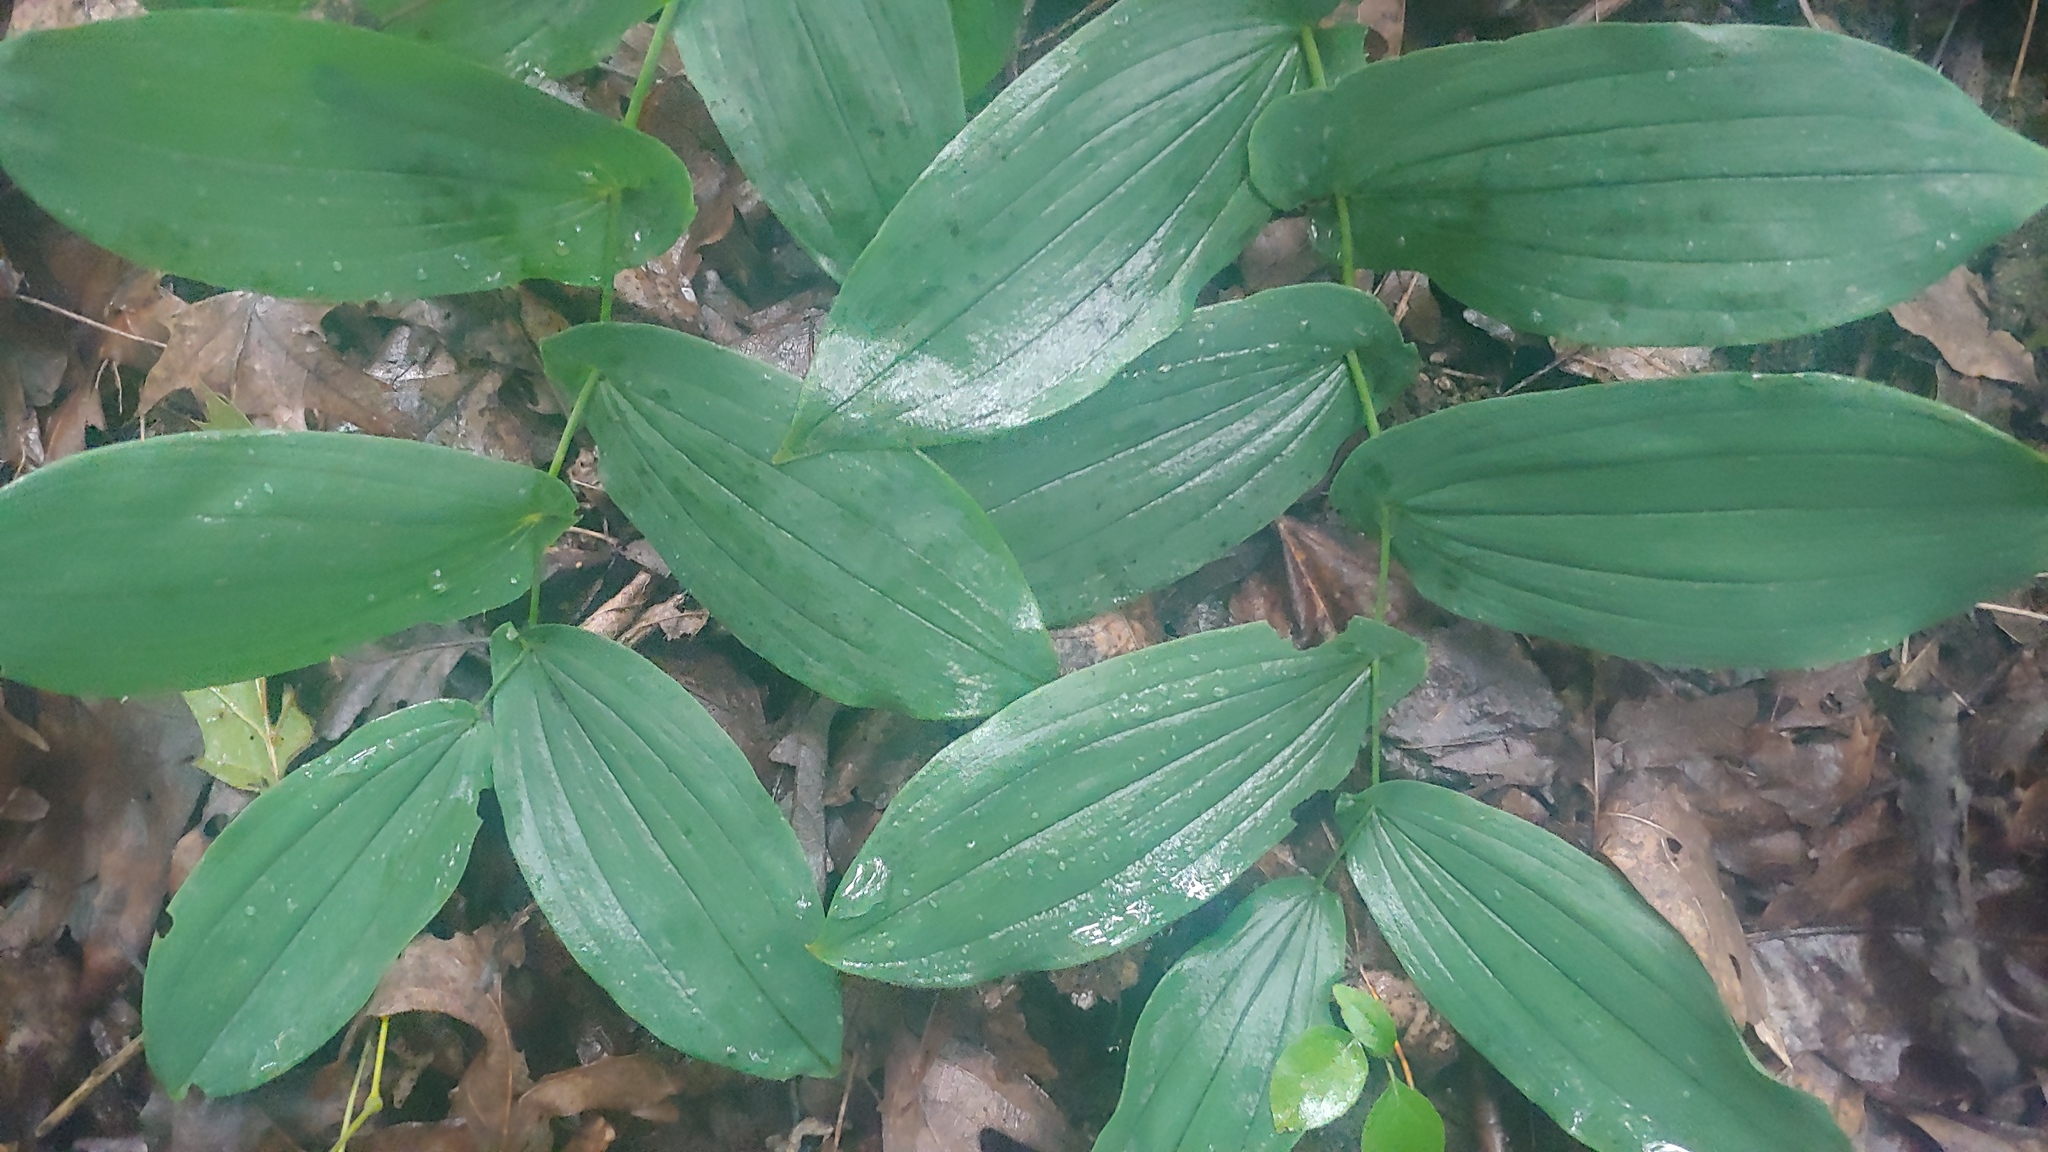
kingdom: Plantae
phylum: Tracheophyta
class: Liliopsida
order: Liliales
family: Colchicaceae
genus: Uvularia
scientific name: Uvularia grandiflora
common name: Bellwort
